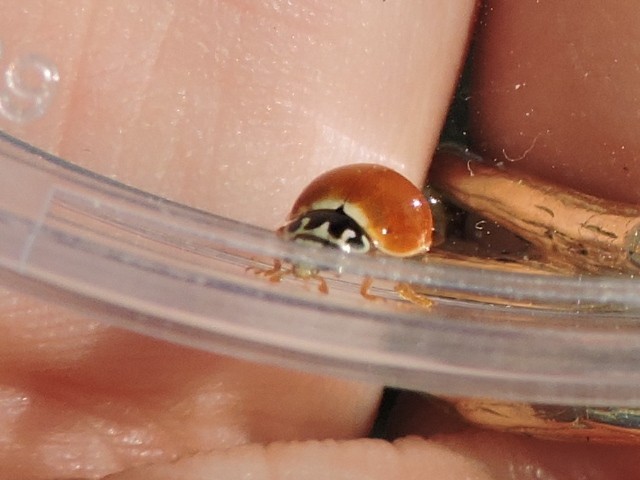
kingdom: Animalia
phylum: Arthropoda
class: Insecta
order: Coleoptera
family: Coccinellidae
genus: Cycloneda
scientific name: Cycloneda munda
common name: Polished lady beetle
